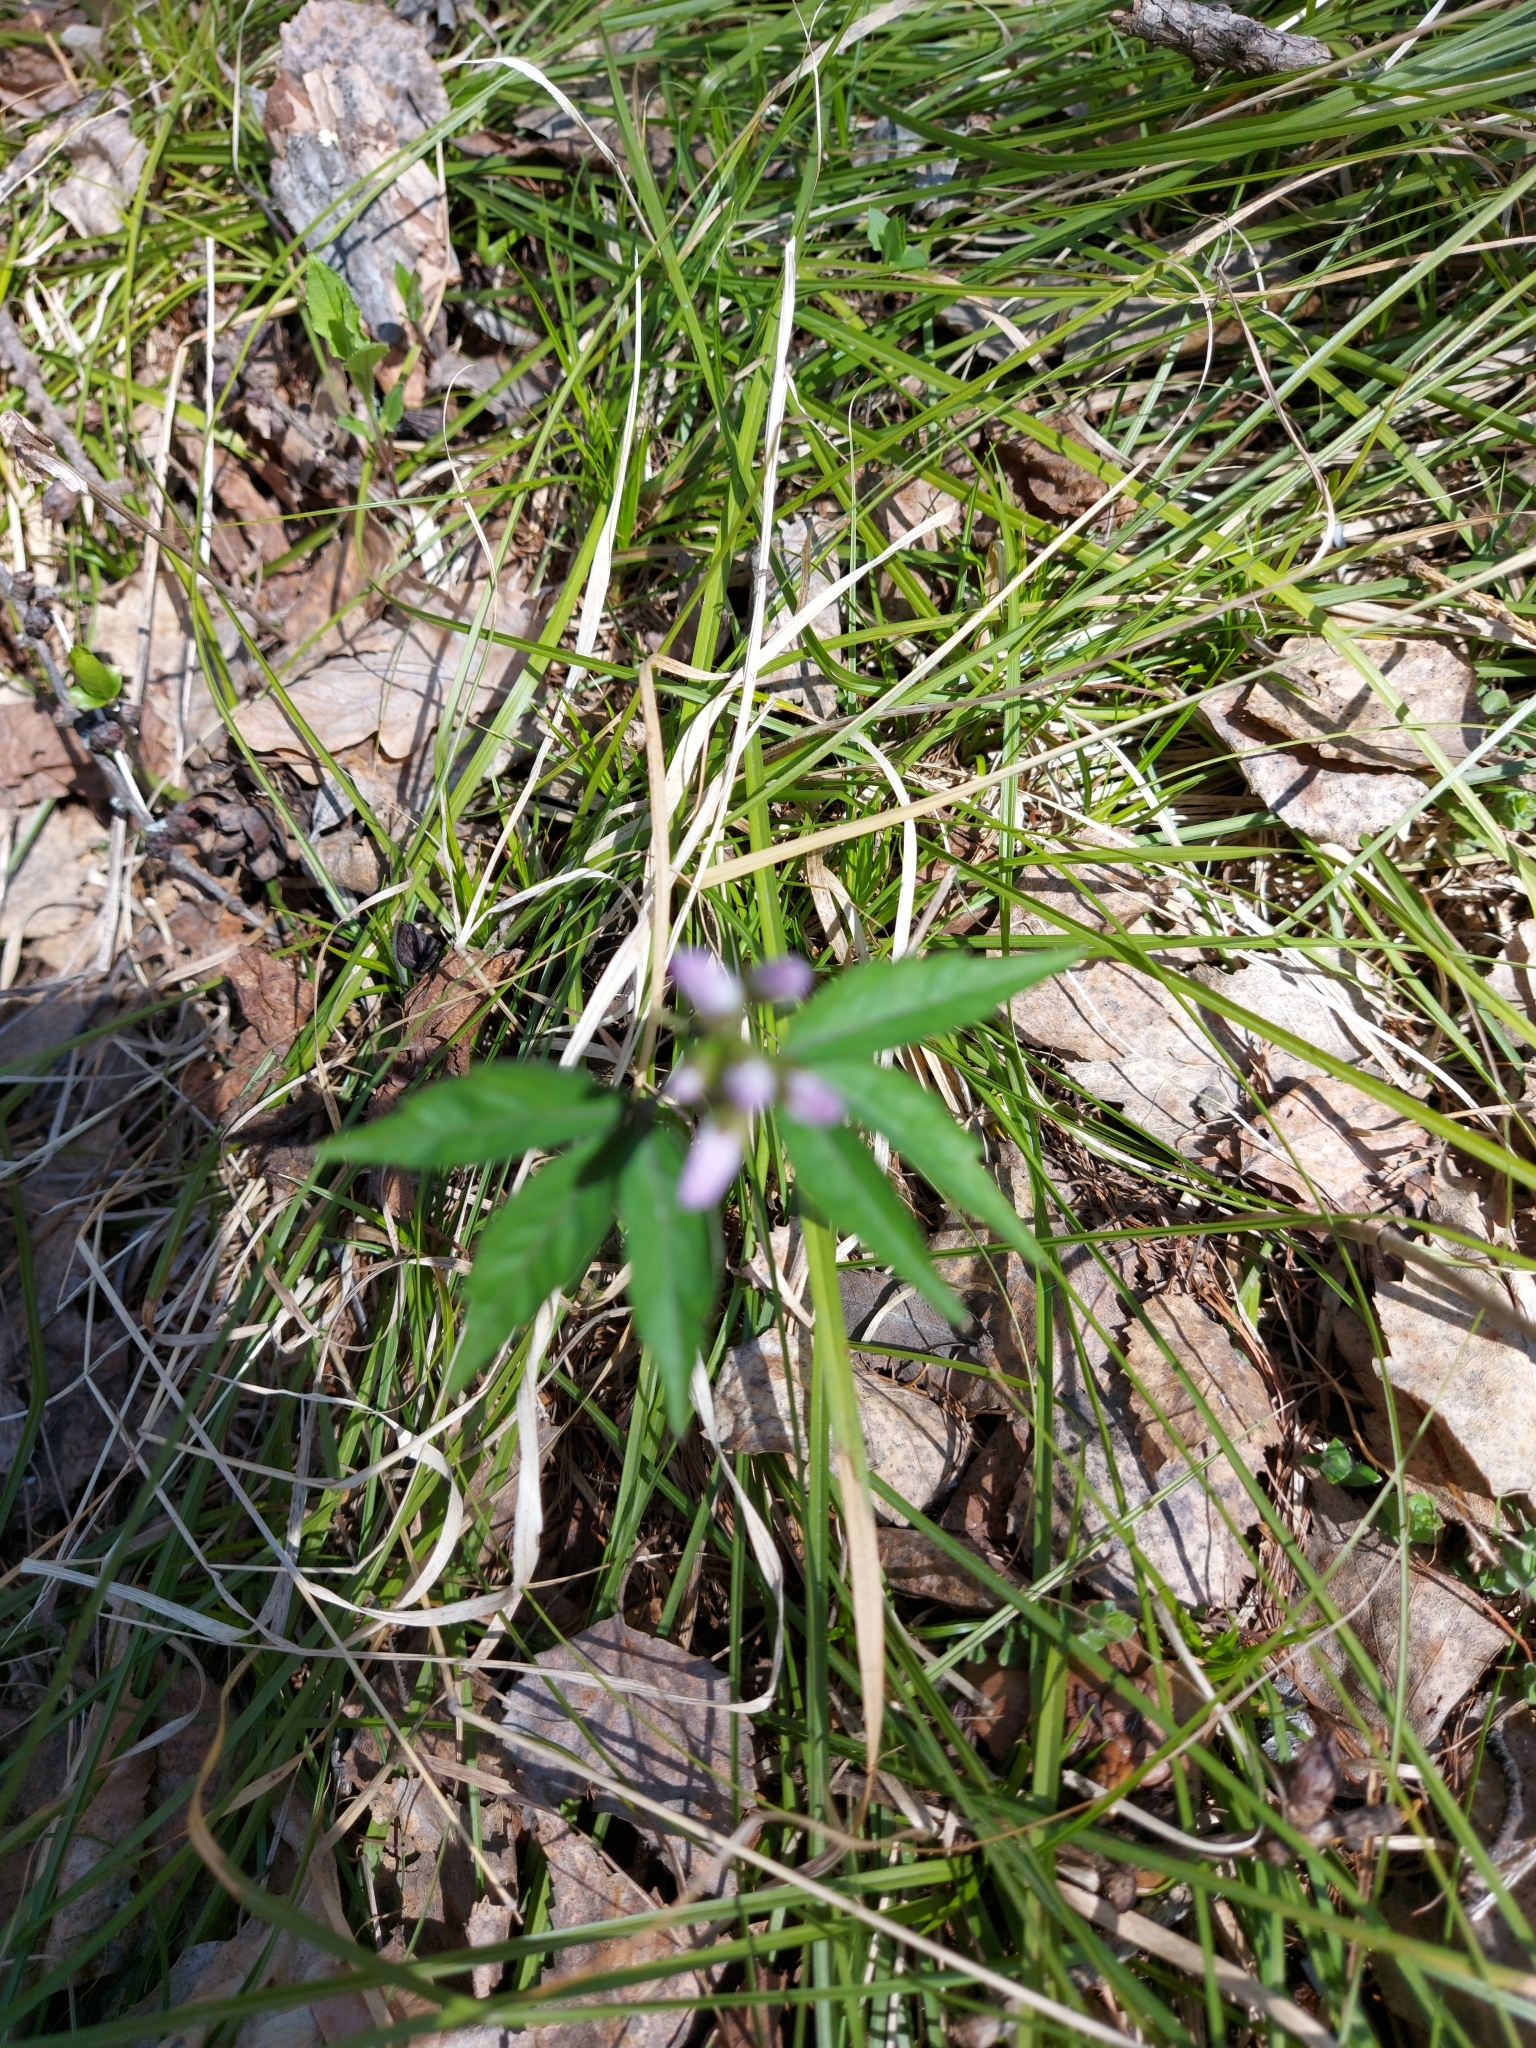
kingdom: Plantae
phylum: Tracheophyta
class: Magnoliopsida
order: Brassicales
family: Brassicaceae
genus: Cardamine
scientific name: Cardamine altaica
